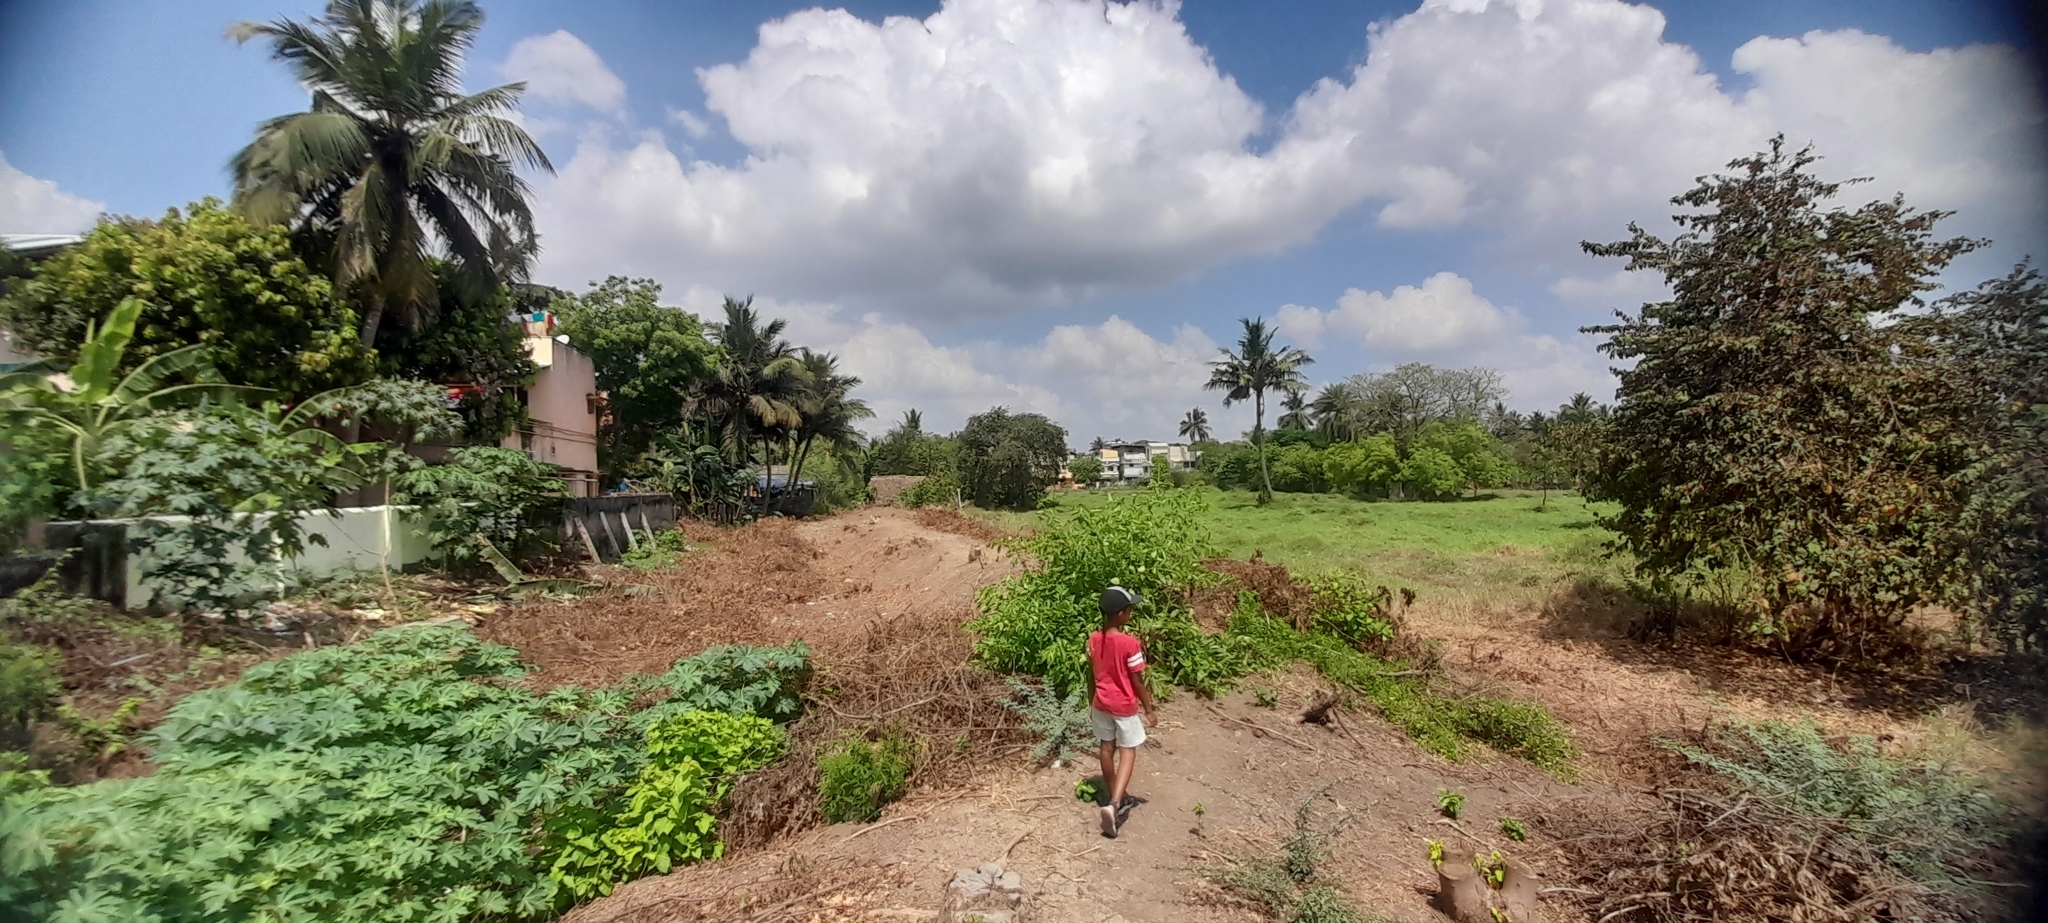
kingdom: Plantae
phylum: Tracheophyta
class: Magnoliopsida
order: Malpighiales
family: Euphorbiaceae
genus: Ricinus
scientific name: Ricinus communis
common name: Castor-oil-plant
